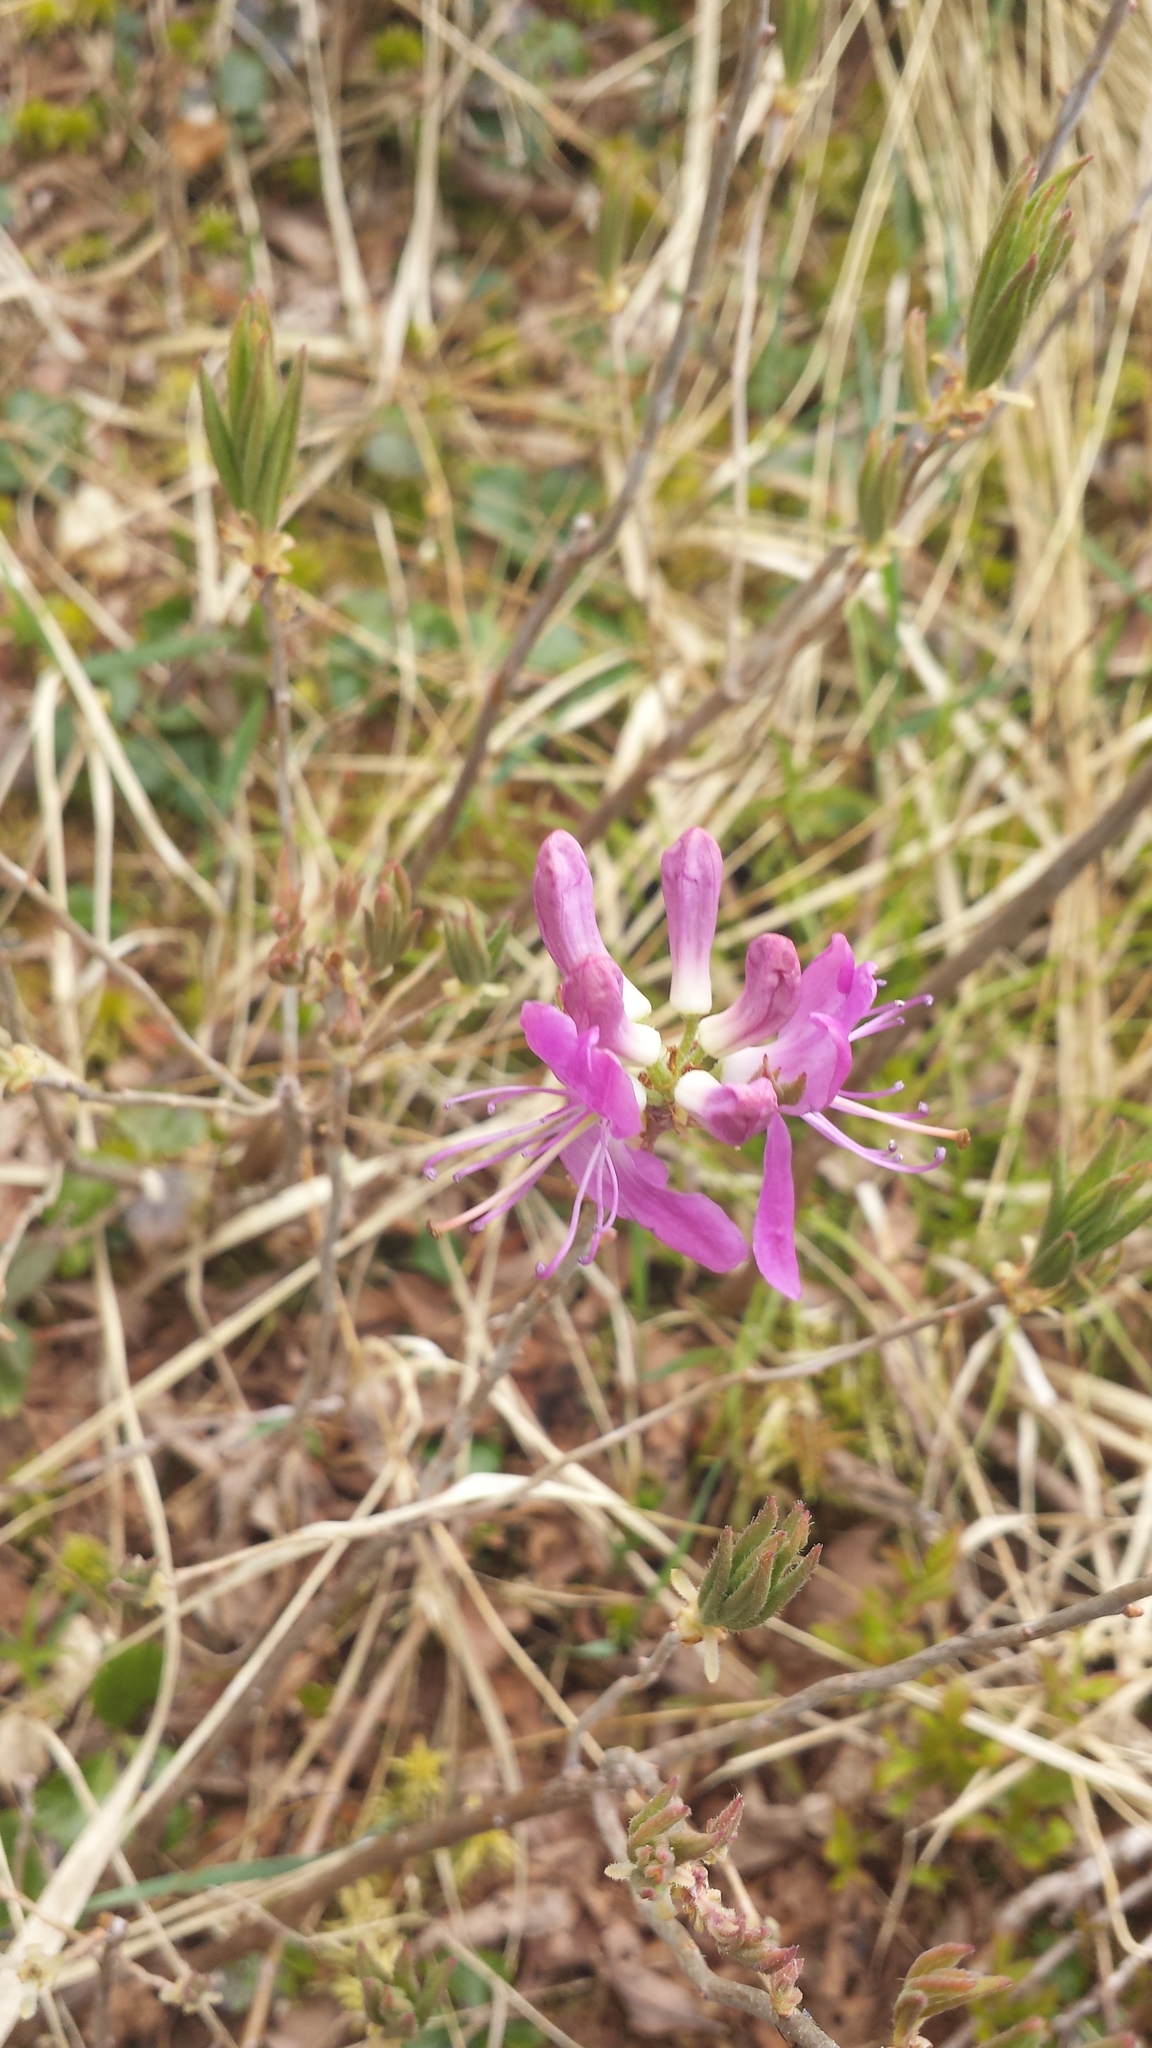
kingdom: Plantae
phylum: Tracheophyta
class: Magnoliopsida
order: Ericales
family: Ericaceae
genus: Rhododendron
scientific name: Rhododendron canadense
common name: Rhodora
